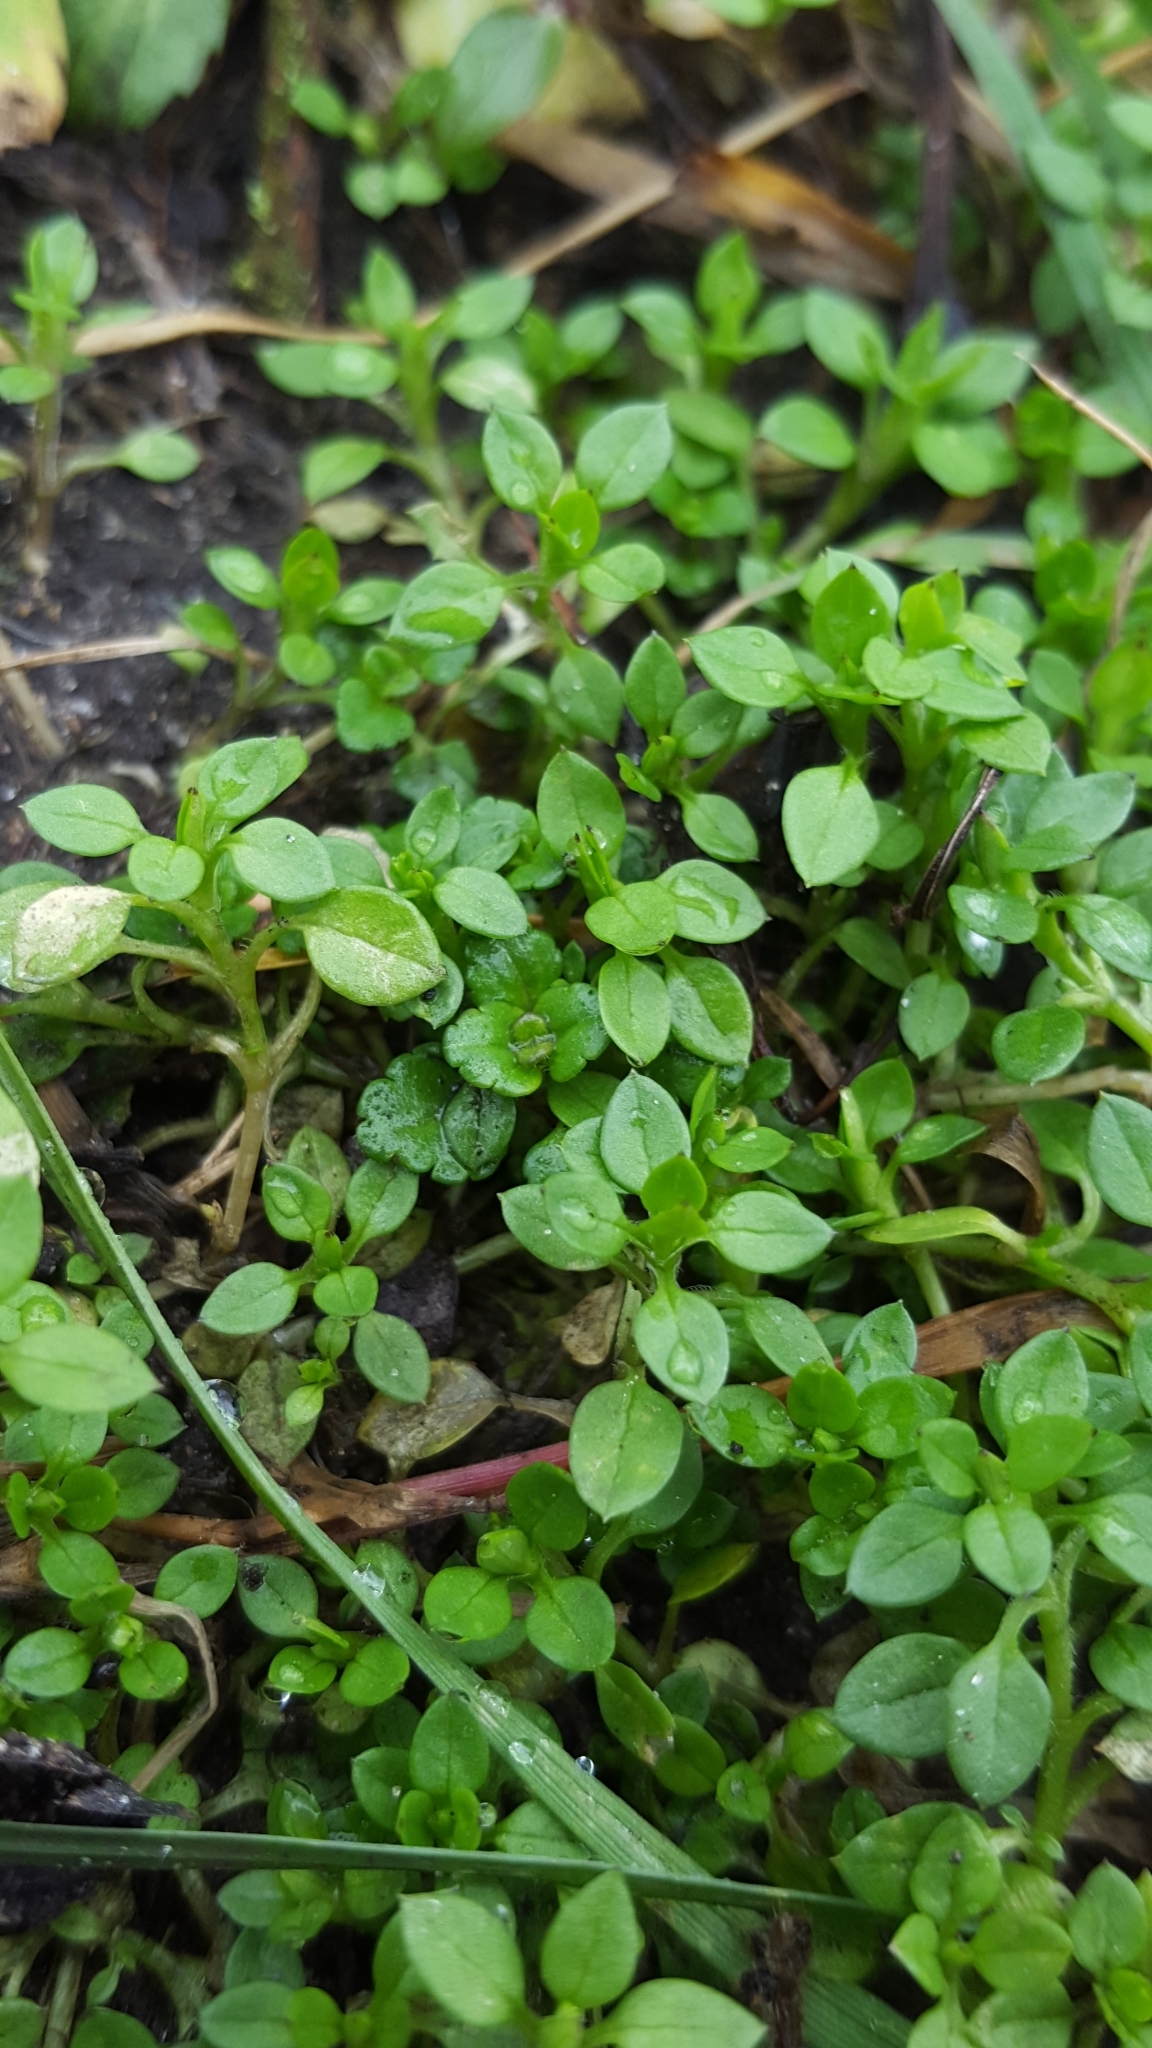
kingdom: Plantae
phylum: Tracheophyta
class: Magnoliopsida
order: Caryophyllales
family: Caryophyllaceae
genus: Stellaria
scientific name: Stellaria media
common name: Common chickweed
